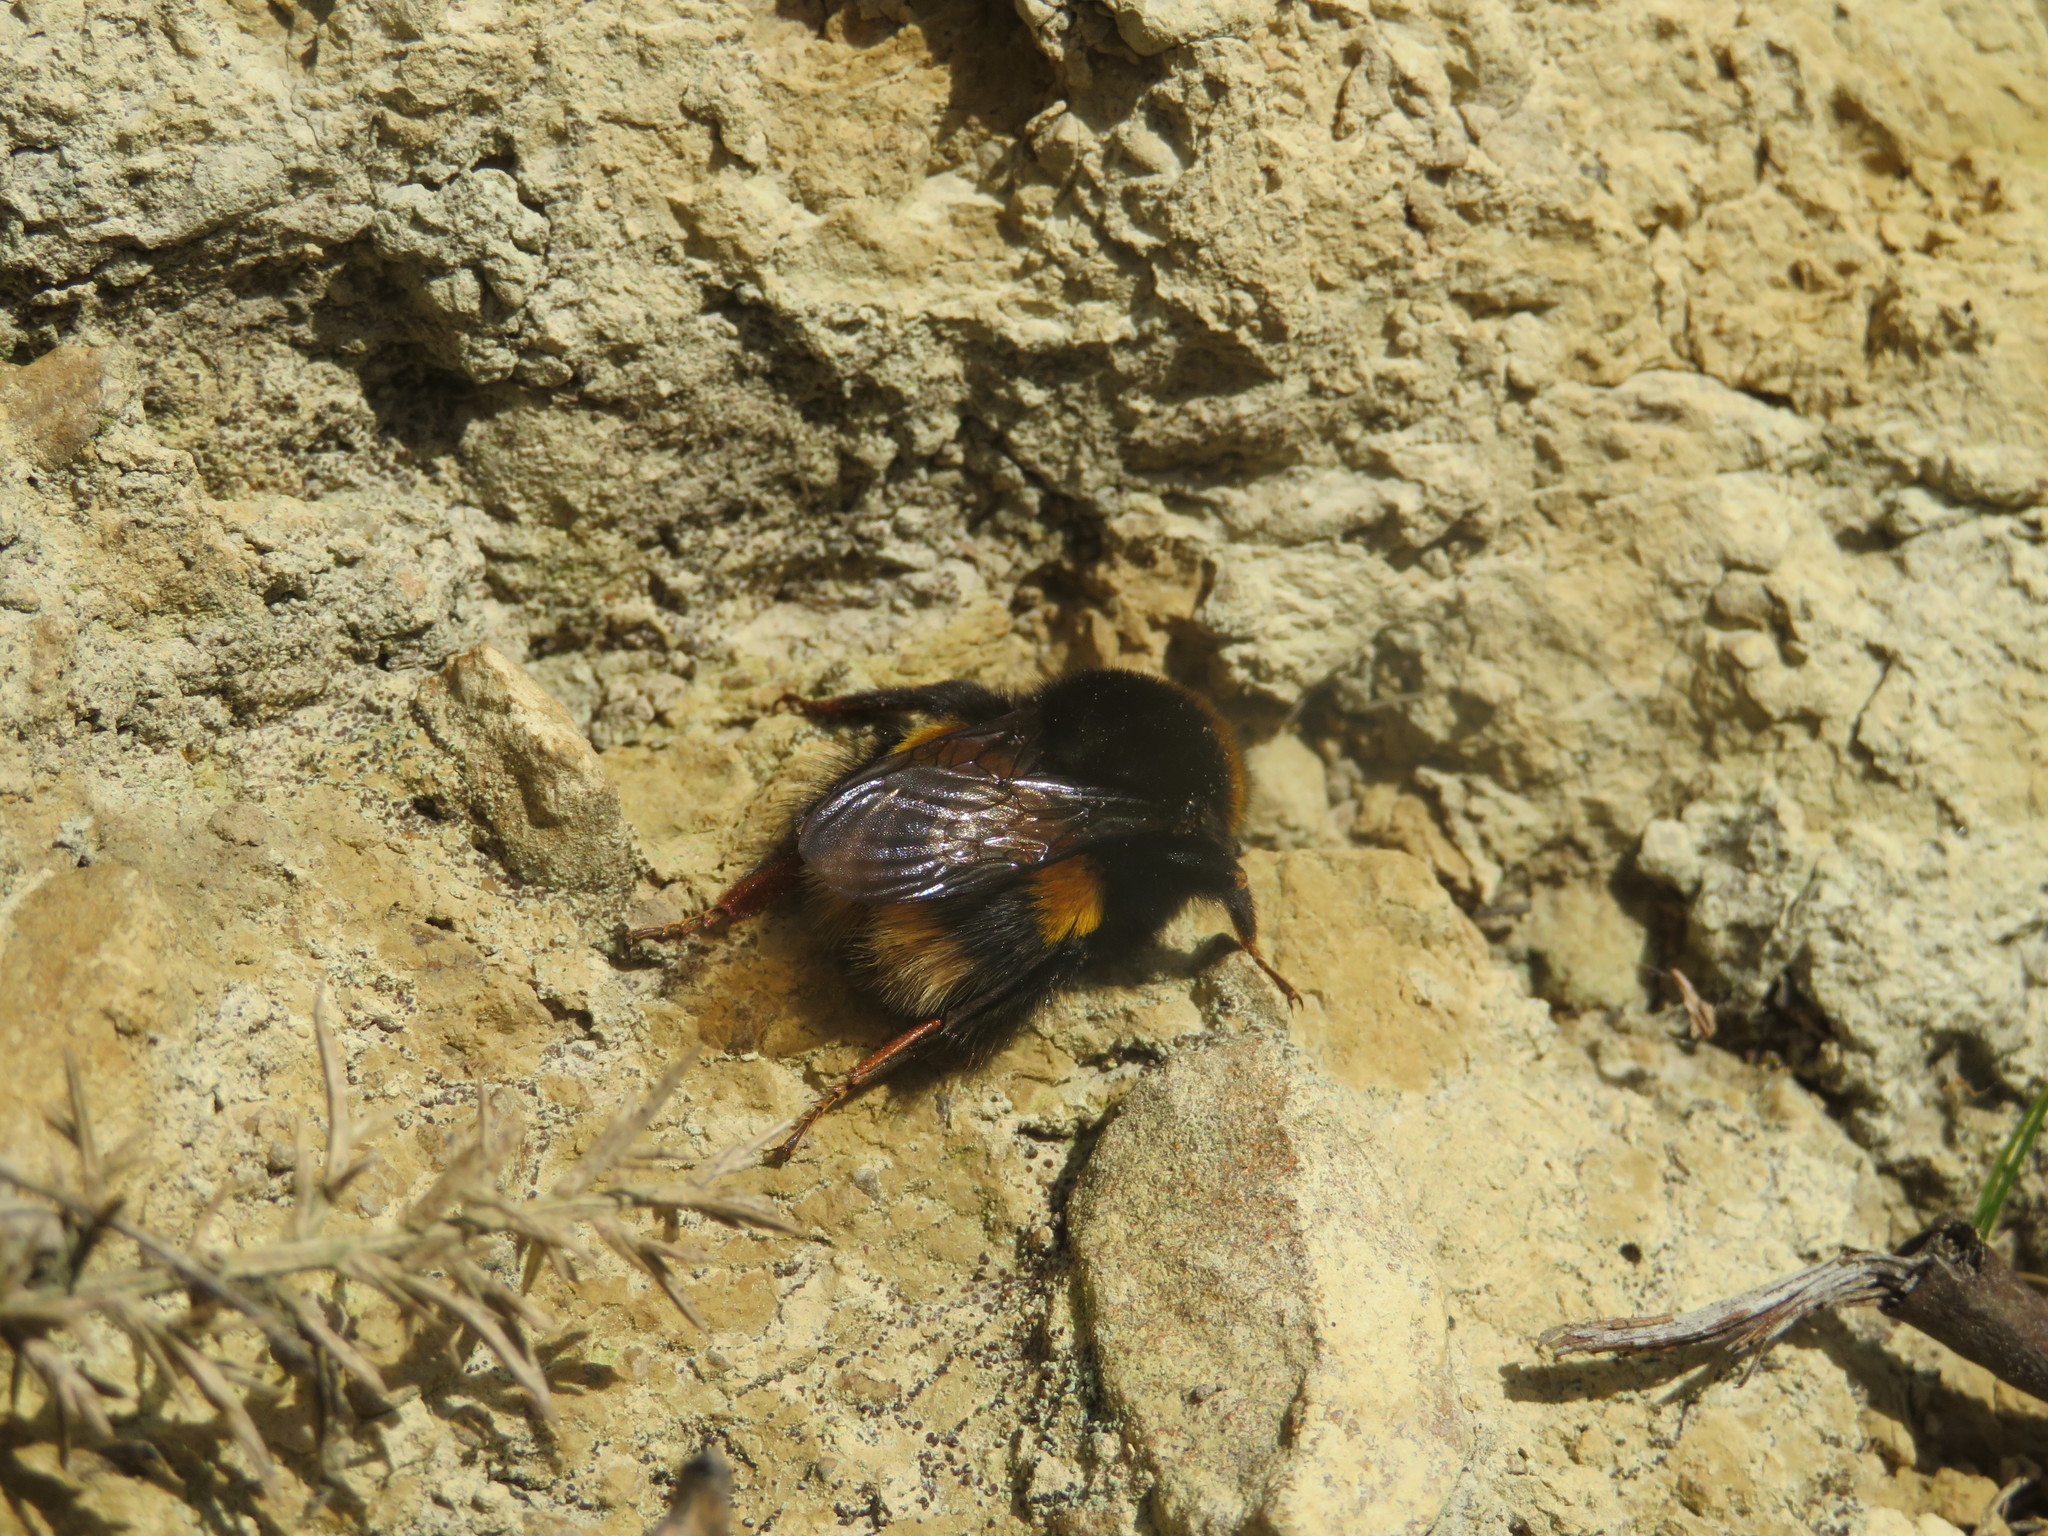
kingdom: Animalia
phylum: Arthropoda
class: Insecta
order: Hymenoptera
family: Apidae
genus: Bombus
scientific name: Bombus terrestris
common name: Buff-tailed bumblebee
